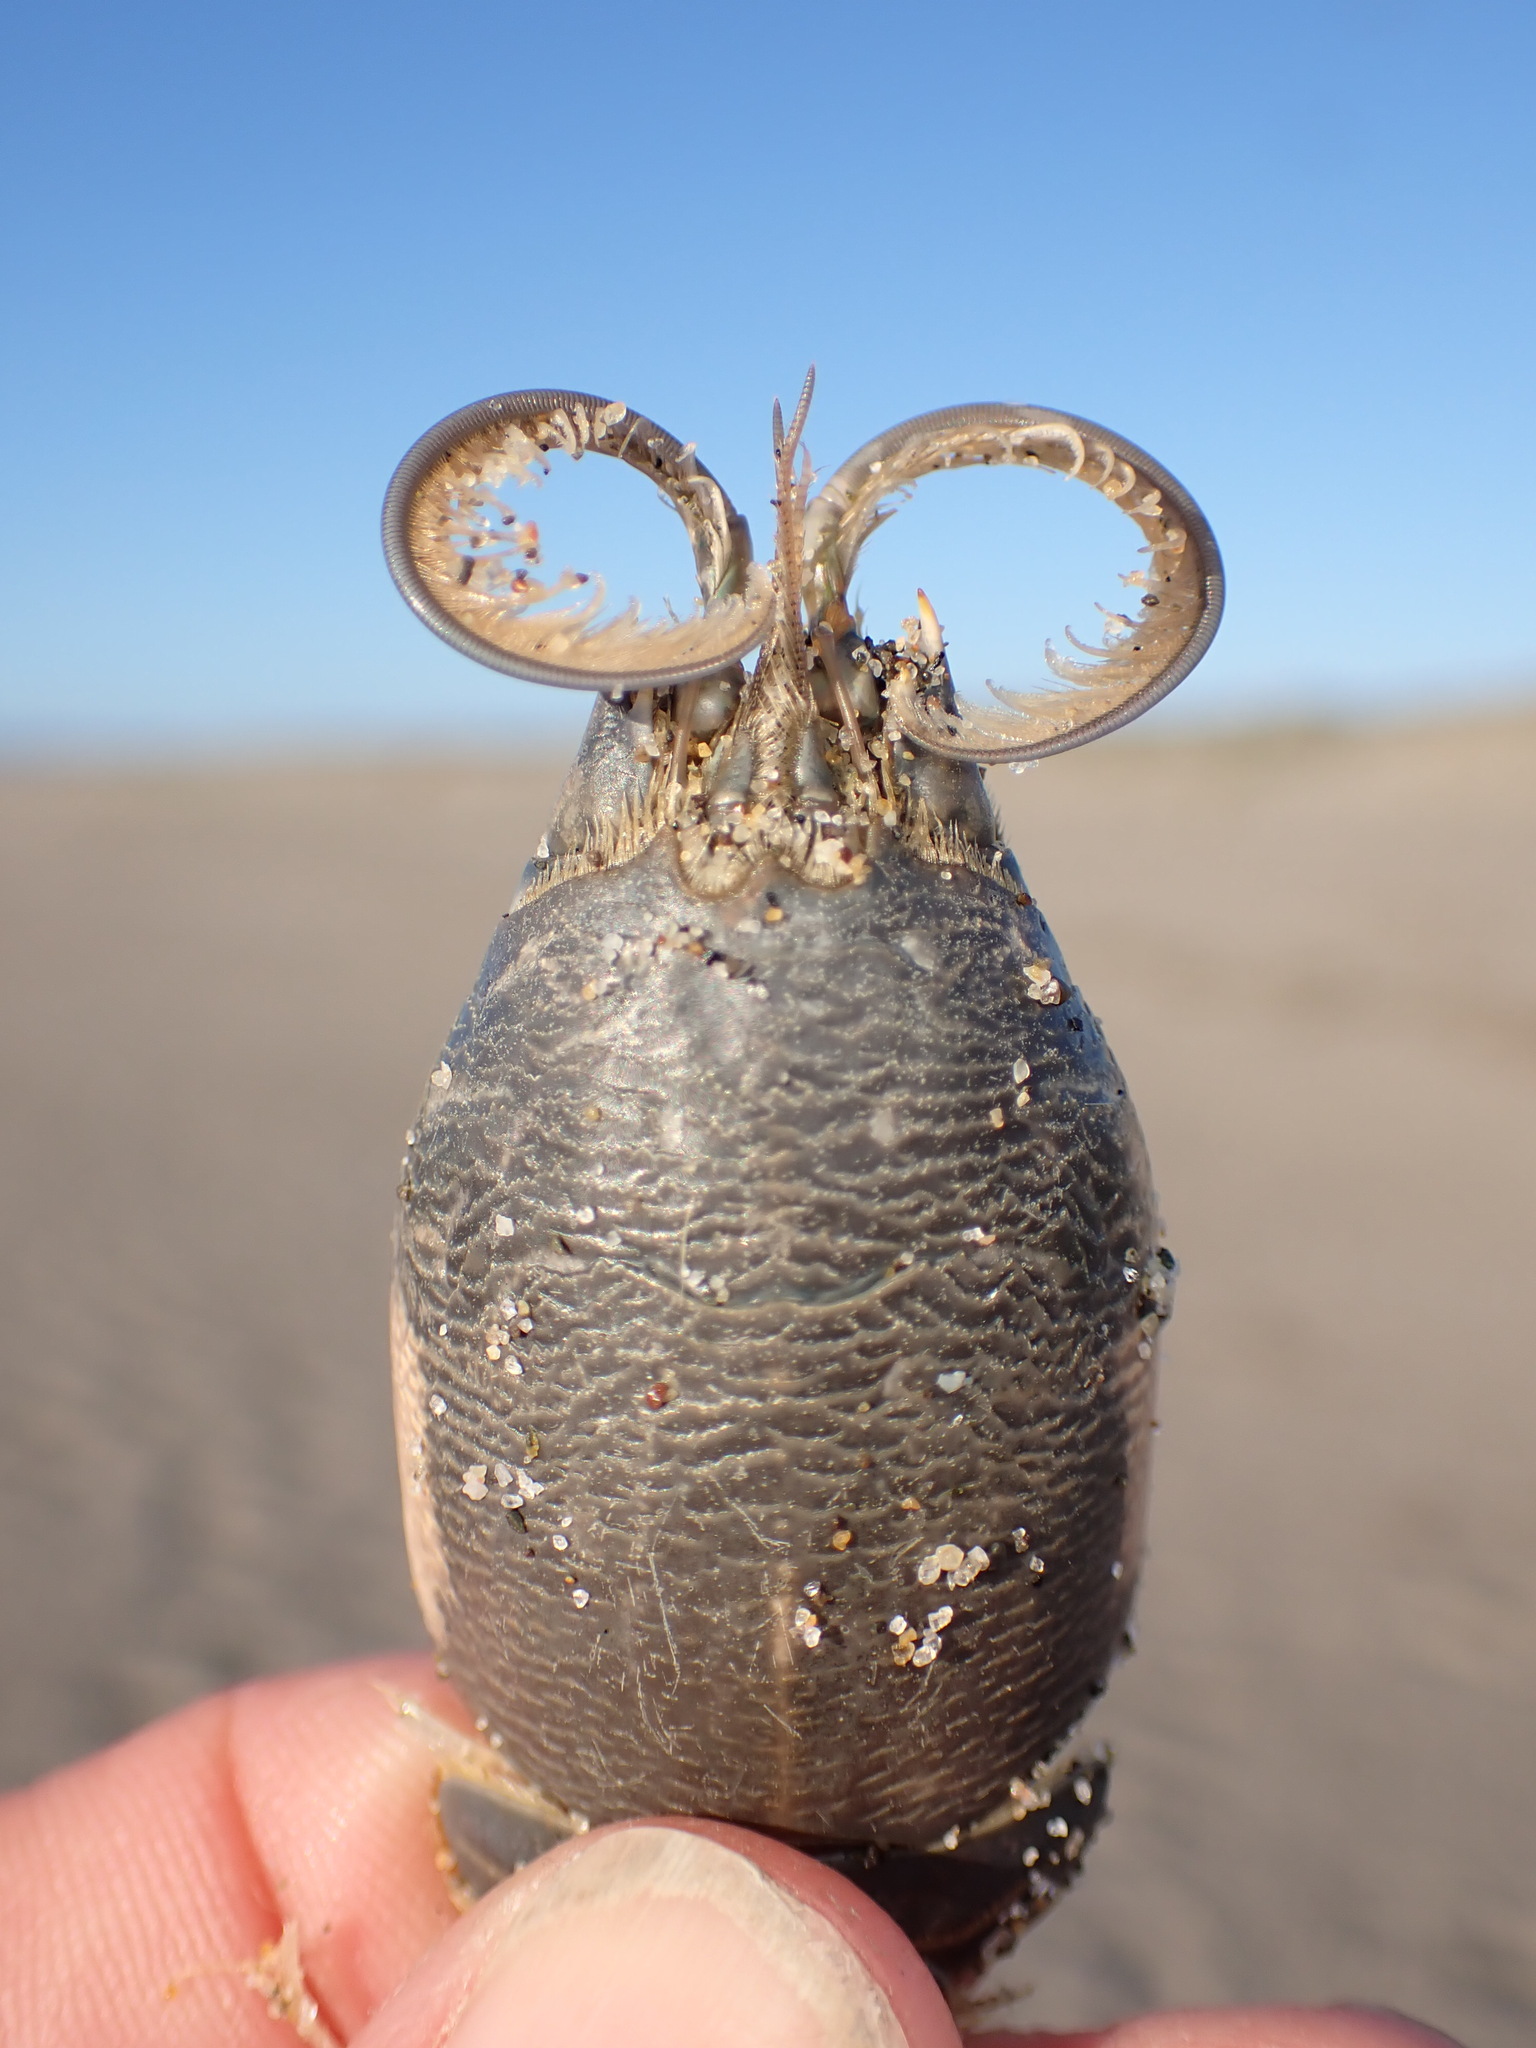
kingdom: Animalia
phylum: Arthropoda
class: Malacostraca
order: Decapoda
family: Hippidae
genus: Emerita
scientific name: Emerita analoga
